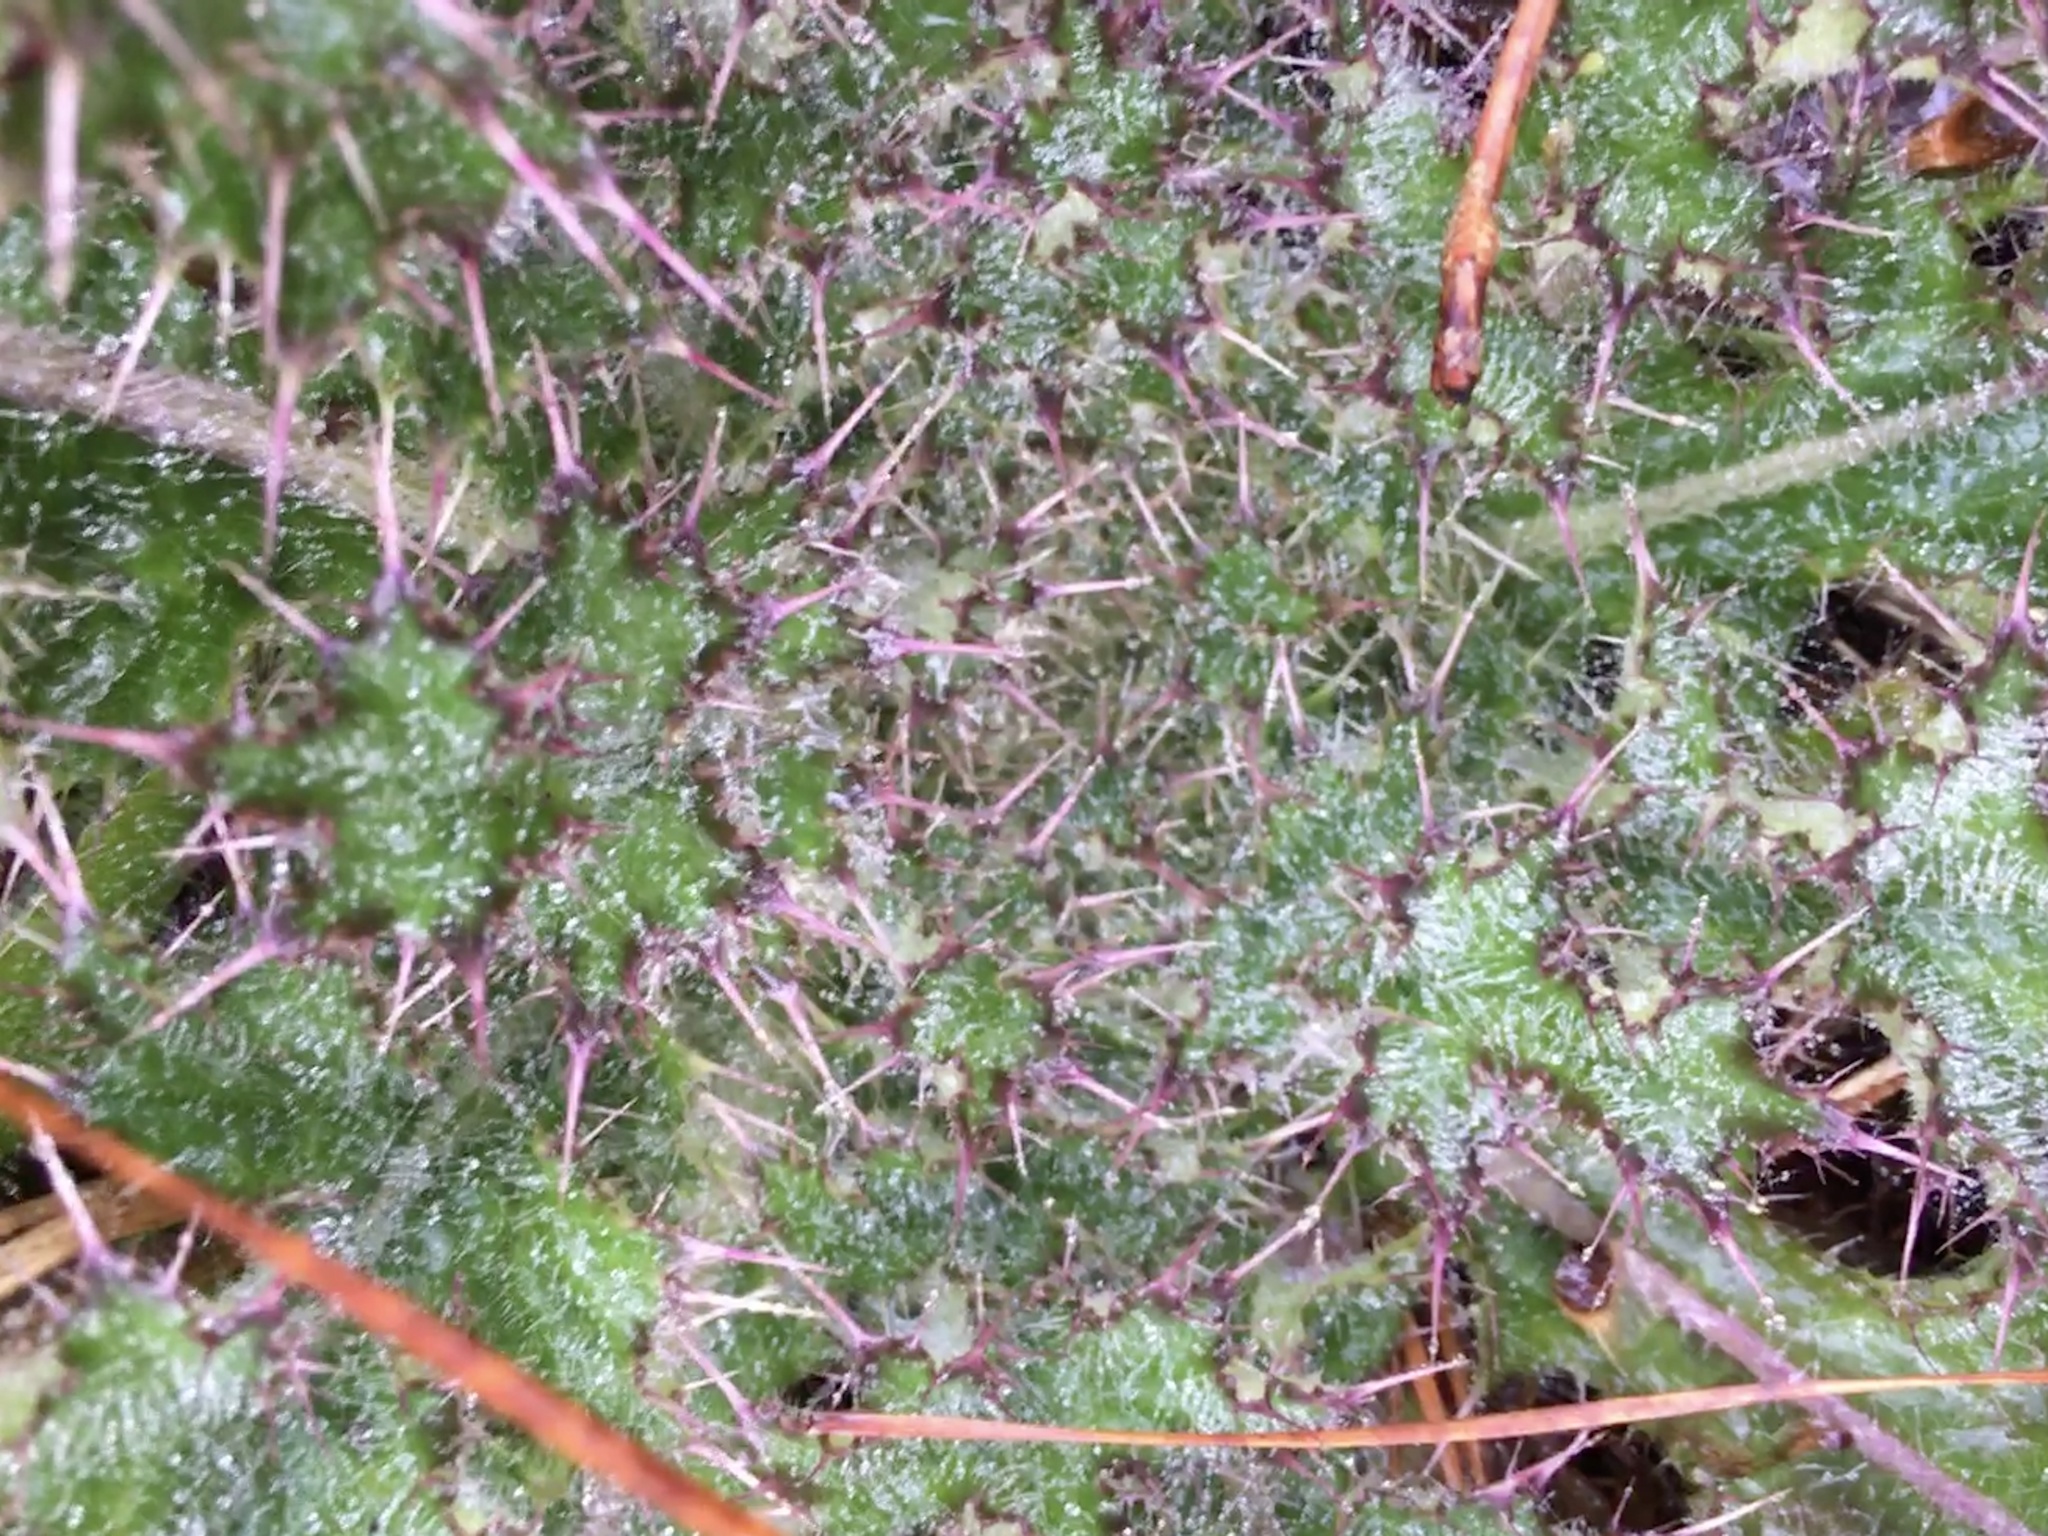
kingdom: Plantae
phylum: Tracheophyta
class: Magnoliopsida
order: Asterales
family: Asteraceae
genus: Cirsium
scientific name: Cirsium horridulum
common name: Bristly thistle
